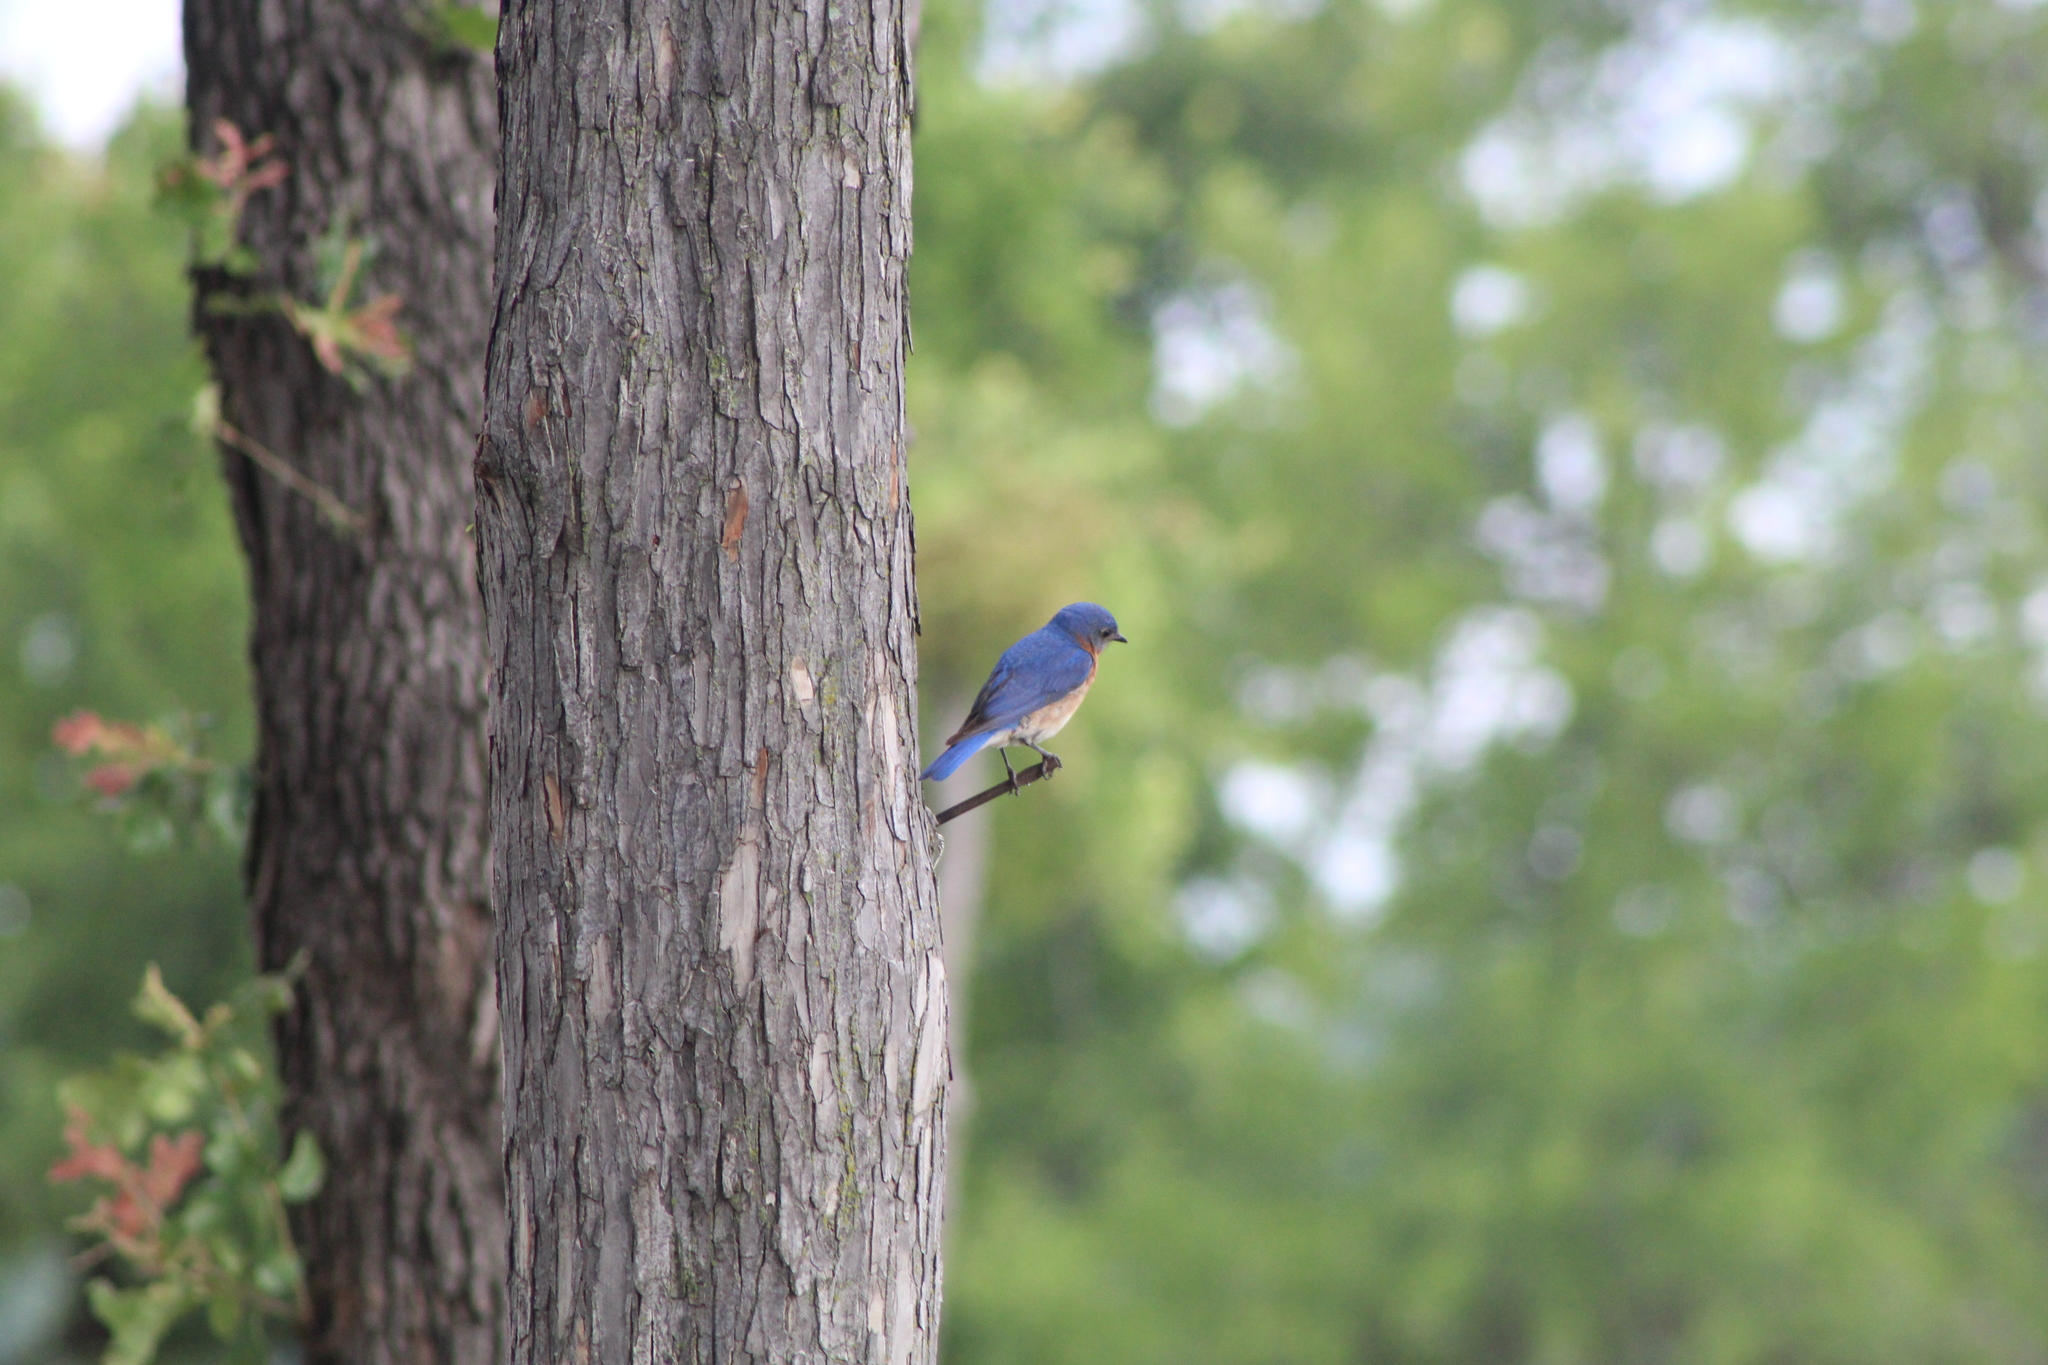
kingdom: Animalia
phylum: Chordata
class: Aves
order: Passeriformes
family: Turdidae
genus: Sialia
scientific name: Sialia sialis
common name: Eastern bluebird
